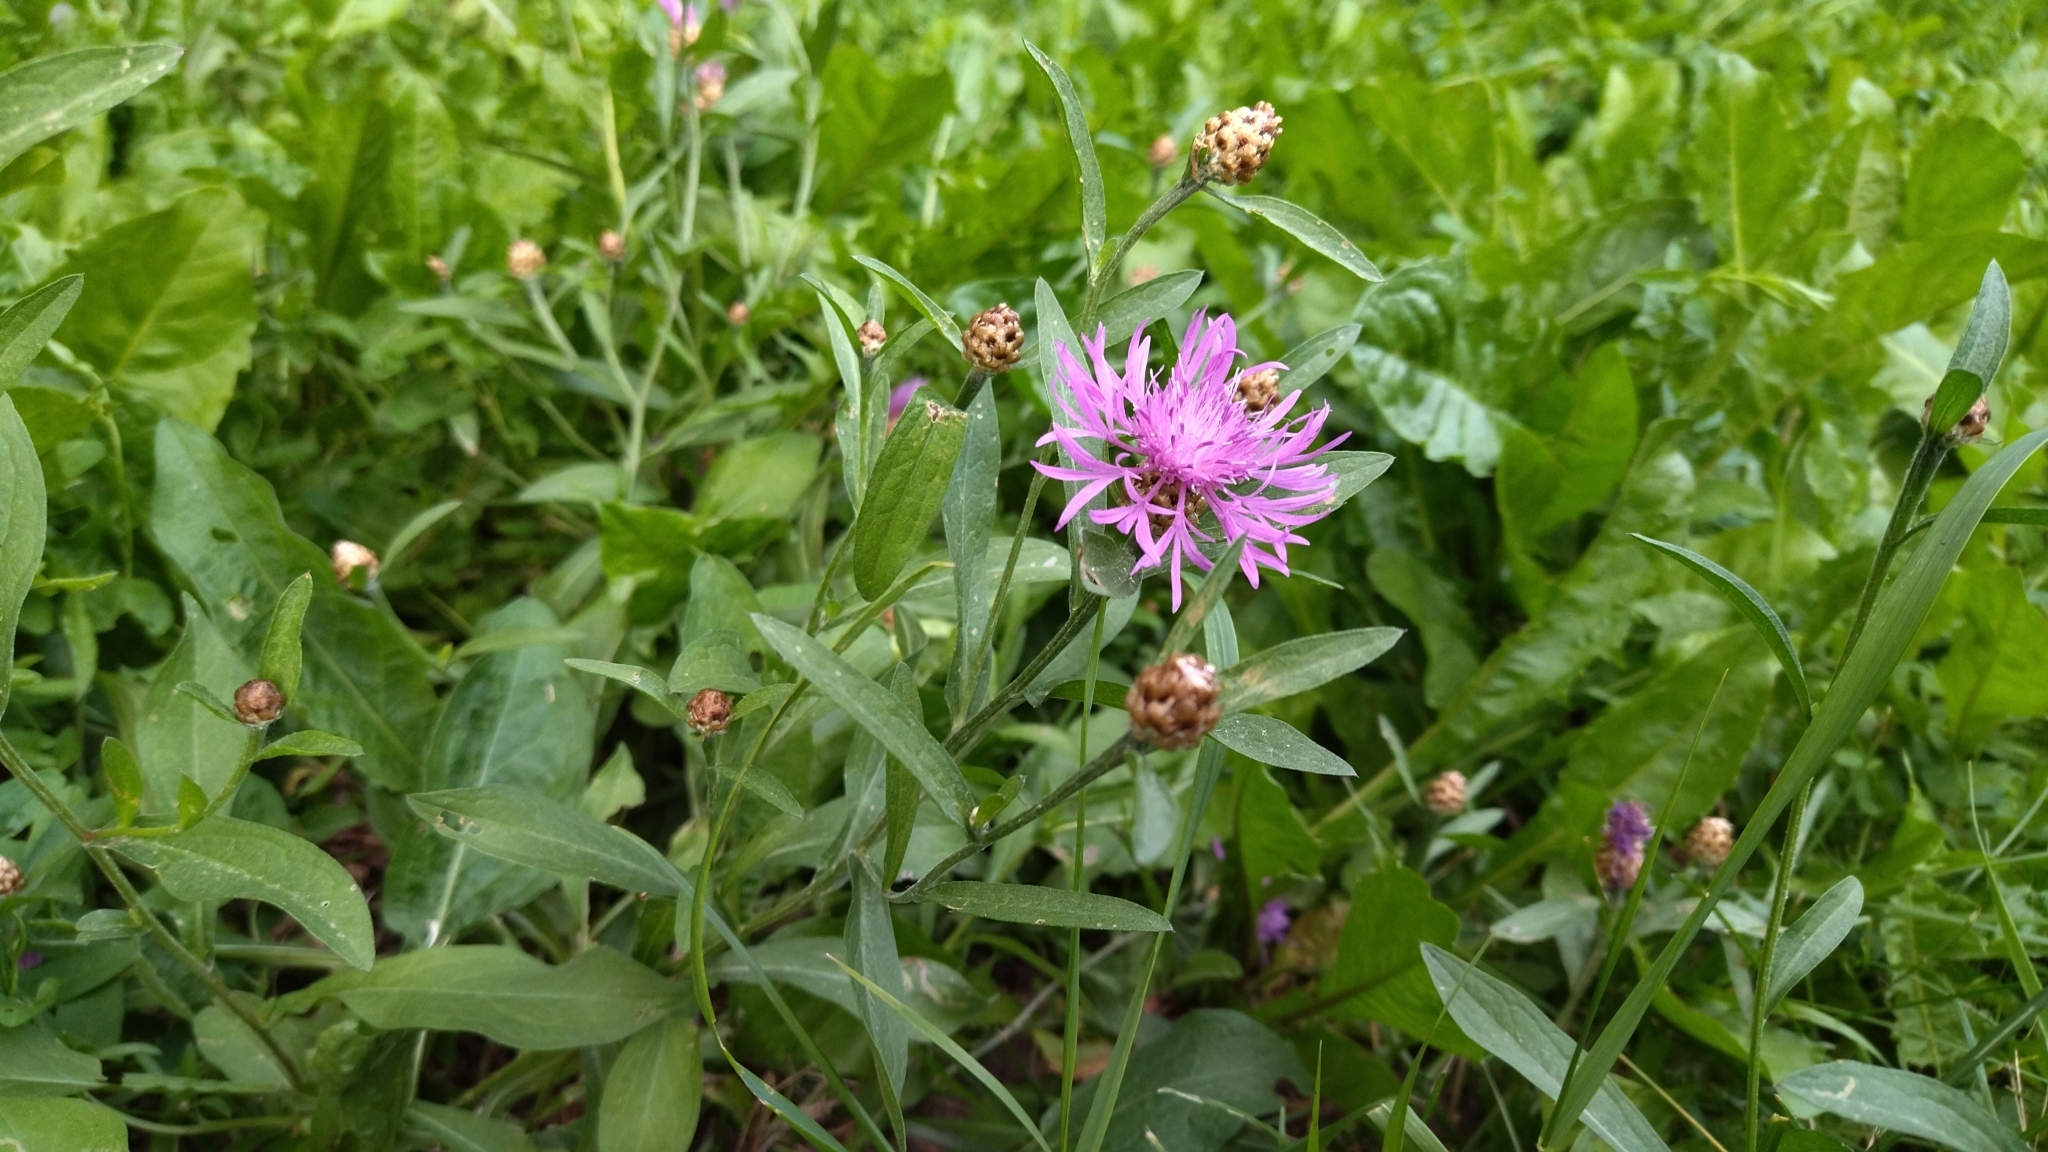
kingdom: Plantae
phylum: Tracheophyta
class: Magnoliopsida
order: Asterales
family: Asteraceae
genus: Centaurea
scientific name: Centaurea jacea
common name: Brown knapweed
